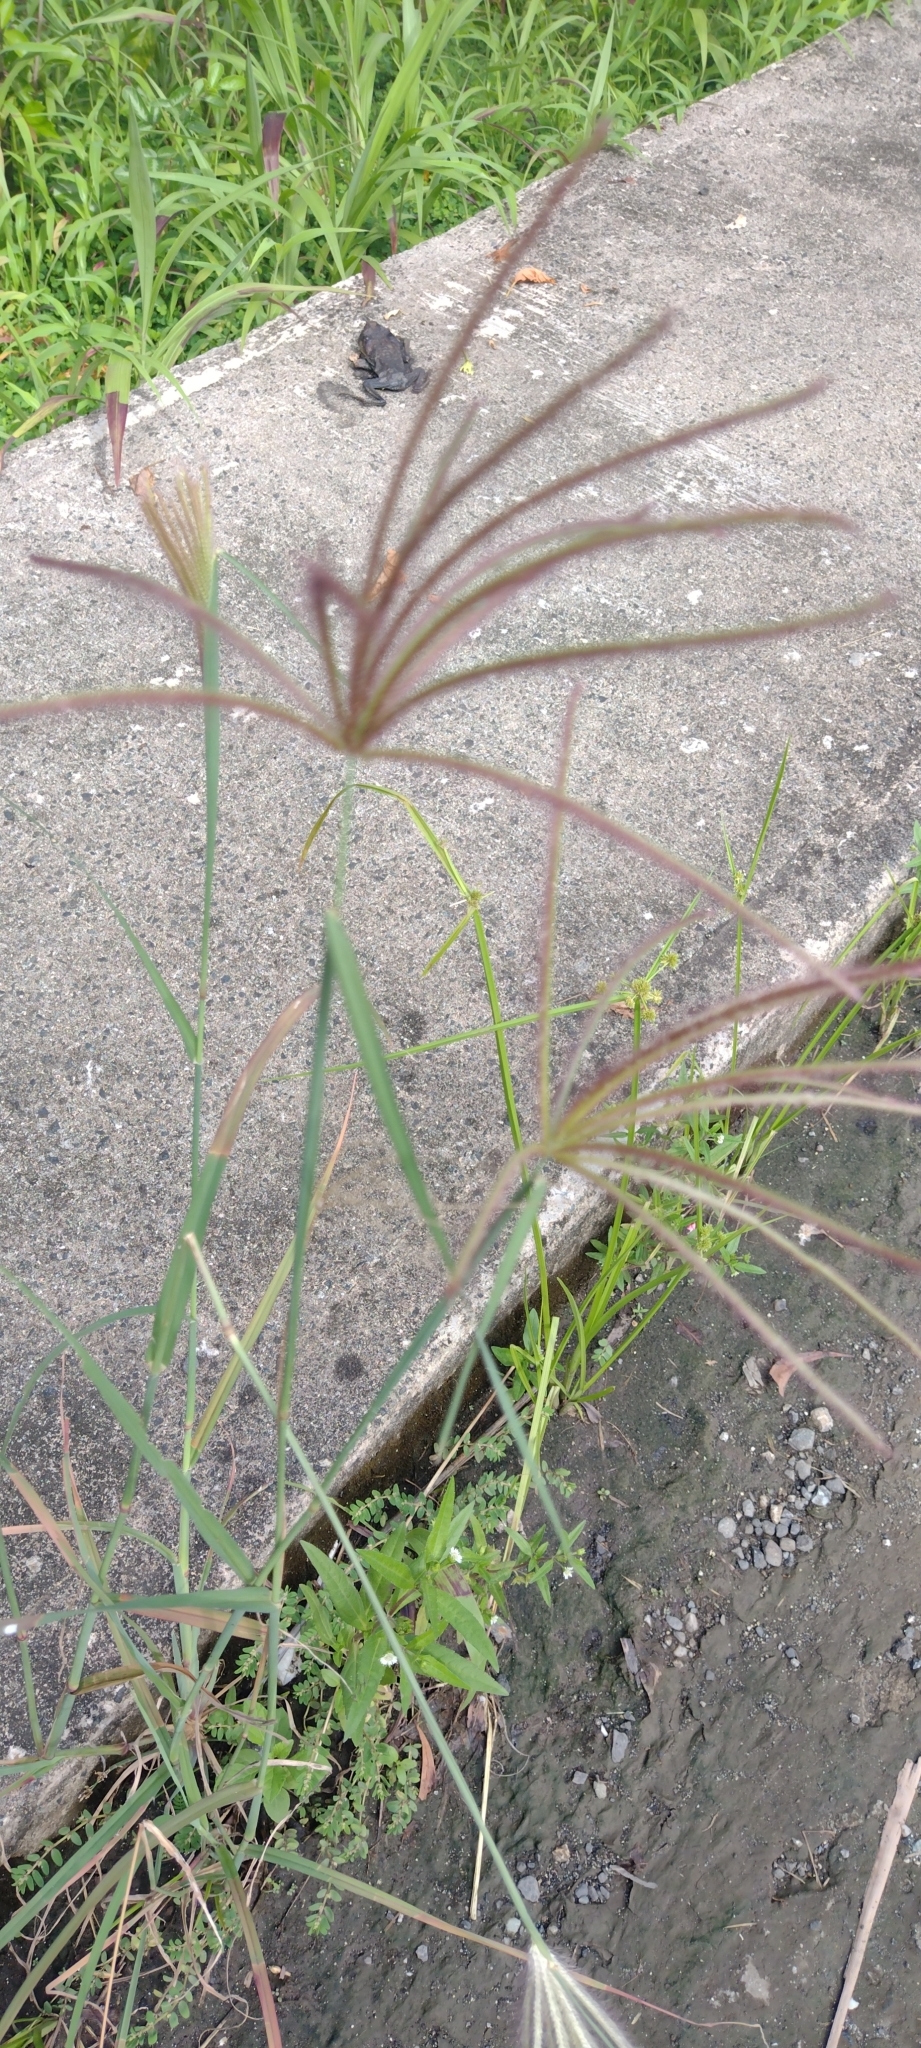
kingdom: Plantae
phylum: Tracheophyta
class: Liliopsida
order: Poales
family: Poaceae
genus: Chloris
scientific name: Chloris barbata
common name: Swollen fingergrass
